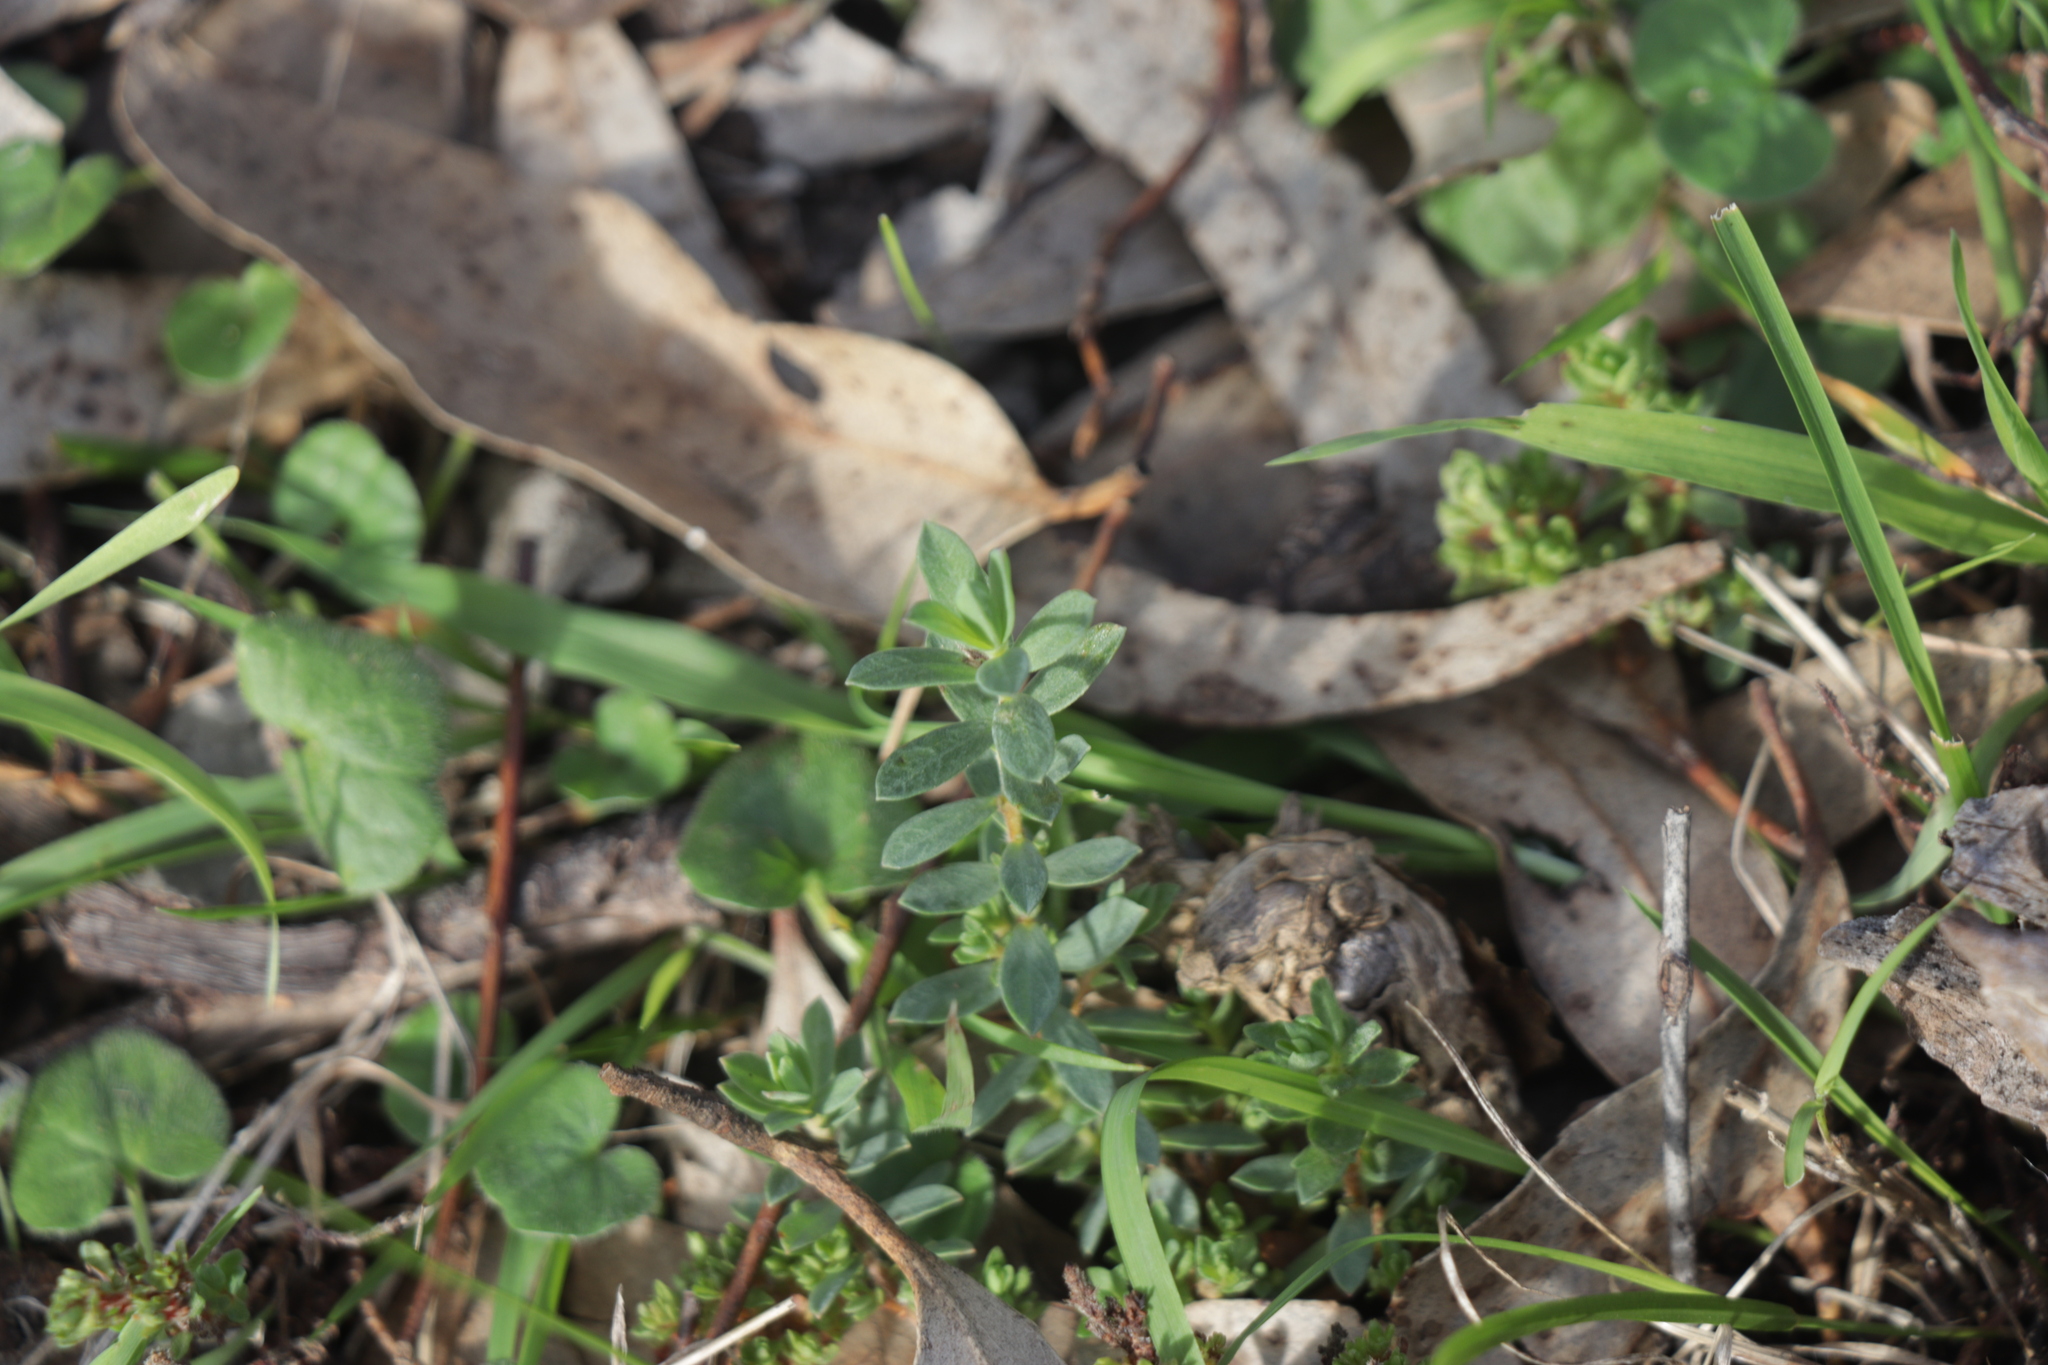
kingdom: Plantae
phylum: Tracheophyta
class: Magnoliopsida
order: Malvales
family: Thymelaeaceae
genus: Pimelea
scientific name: Pimelea humilis
